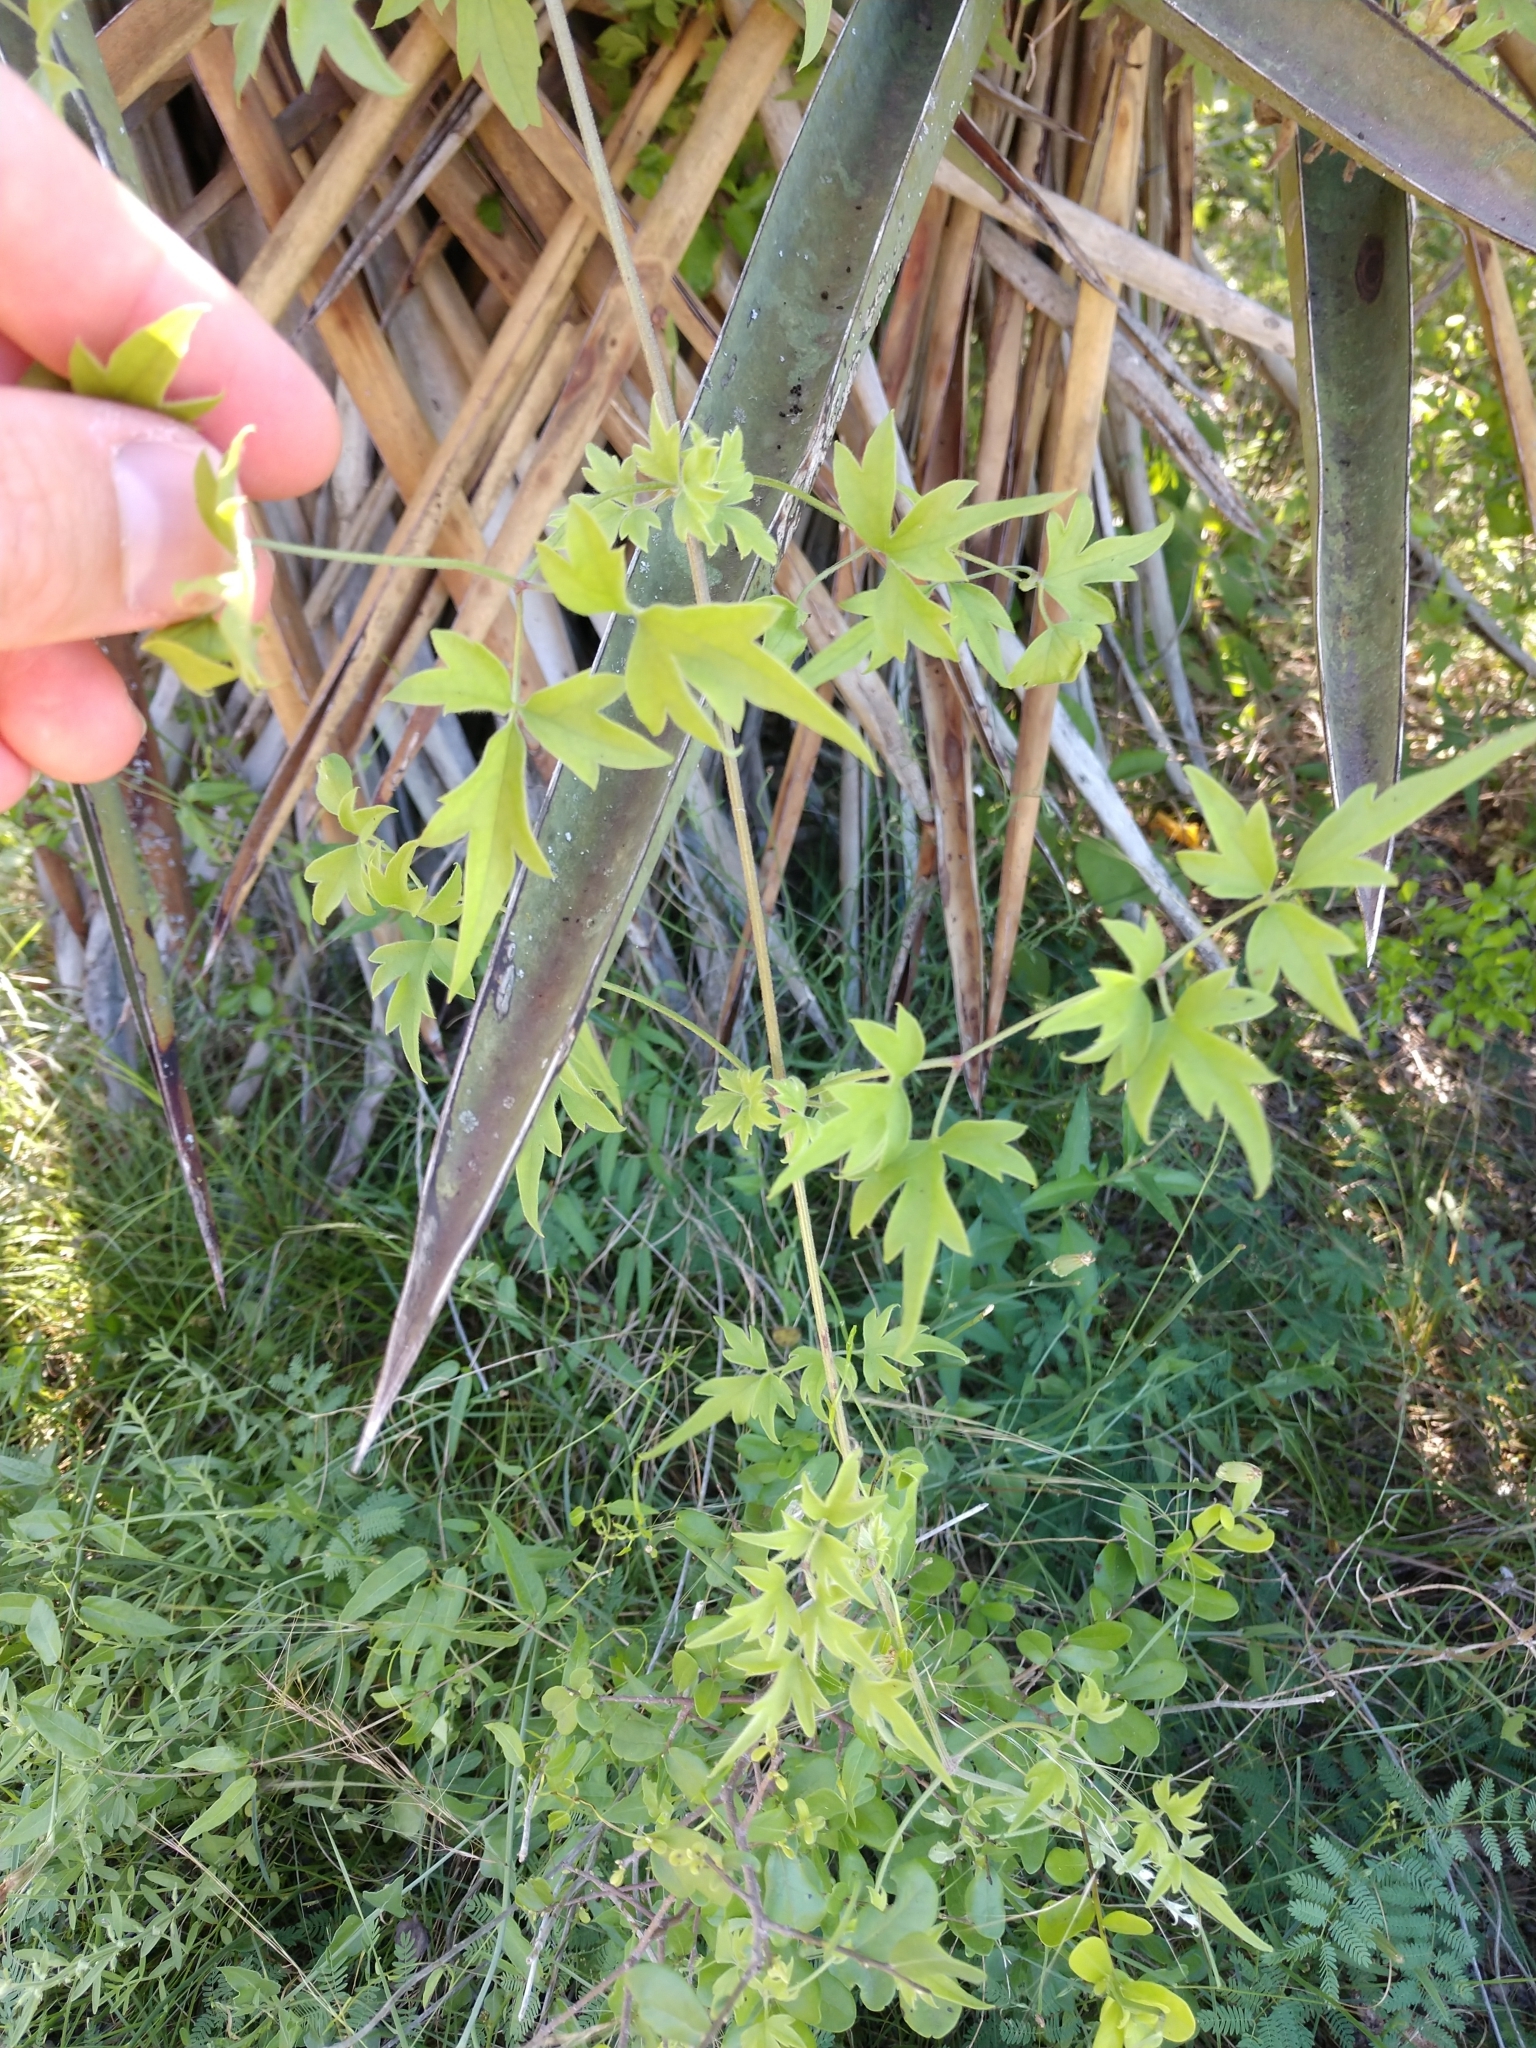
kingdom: Plantae
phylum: Tracheophyta
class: Magnoliopsida
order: Ranunculales
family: Ranunculaceae
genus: Clematis
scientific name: Clematis drummondii
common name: Texas virgin's bower
